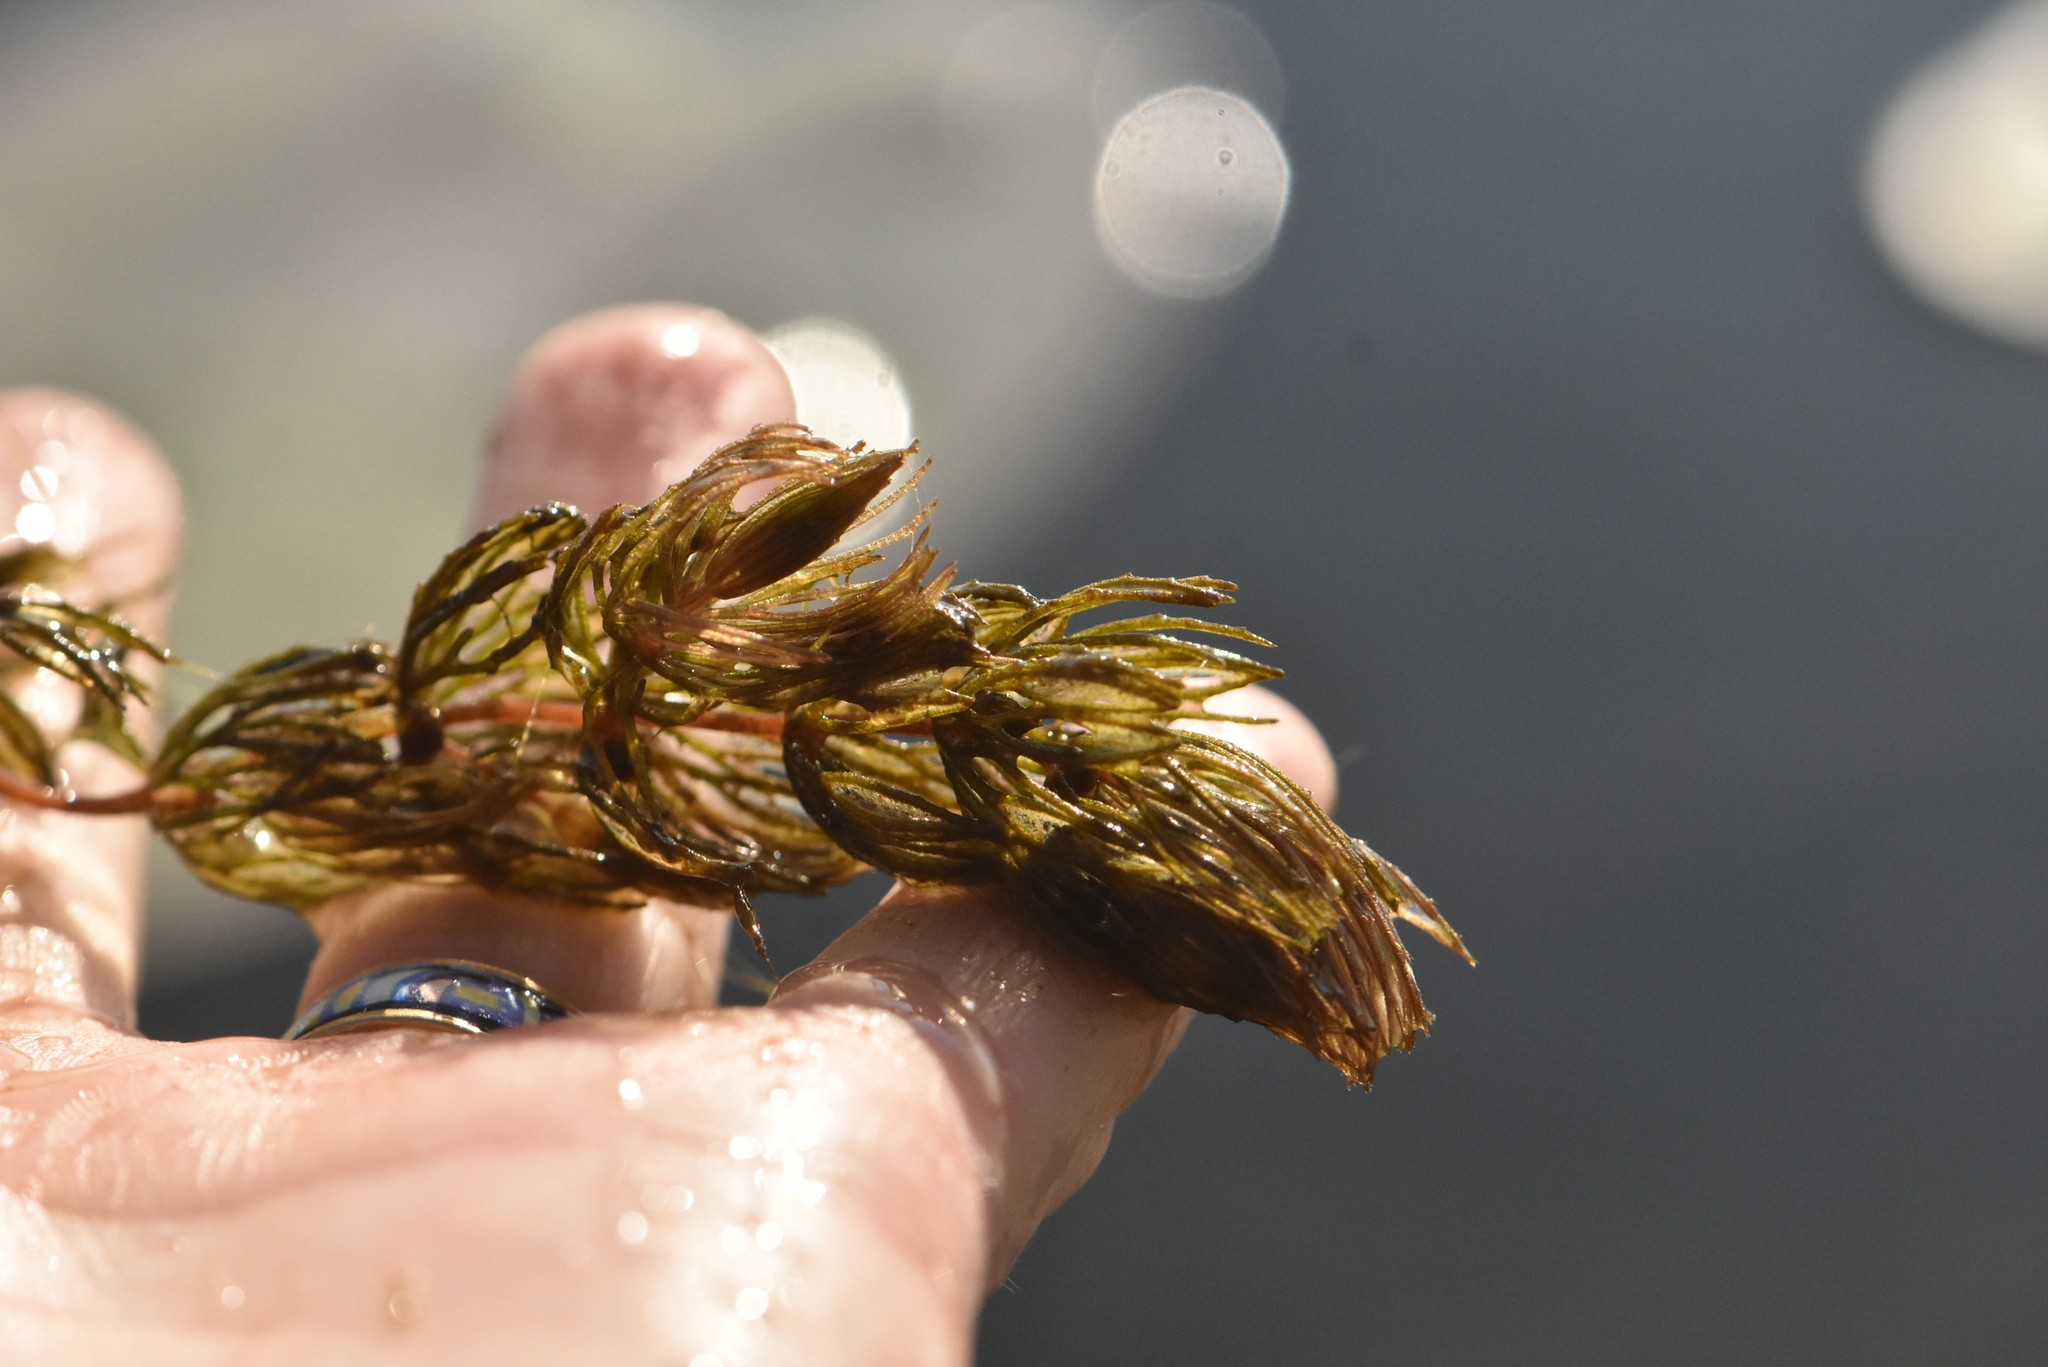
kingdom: Plantae
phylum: Tracheophyta
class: Magnoliopsida
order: Ceratophyllales
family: Ceratophyllaceae
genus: Ceratophyllum
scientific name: Ceratophyllum demersum
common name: Rigid hornwort
